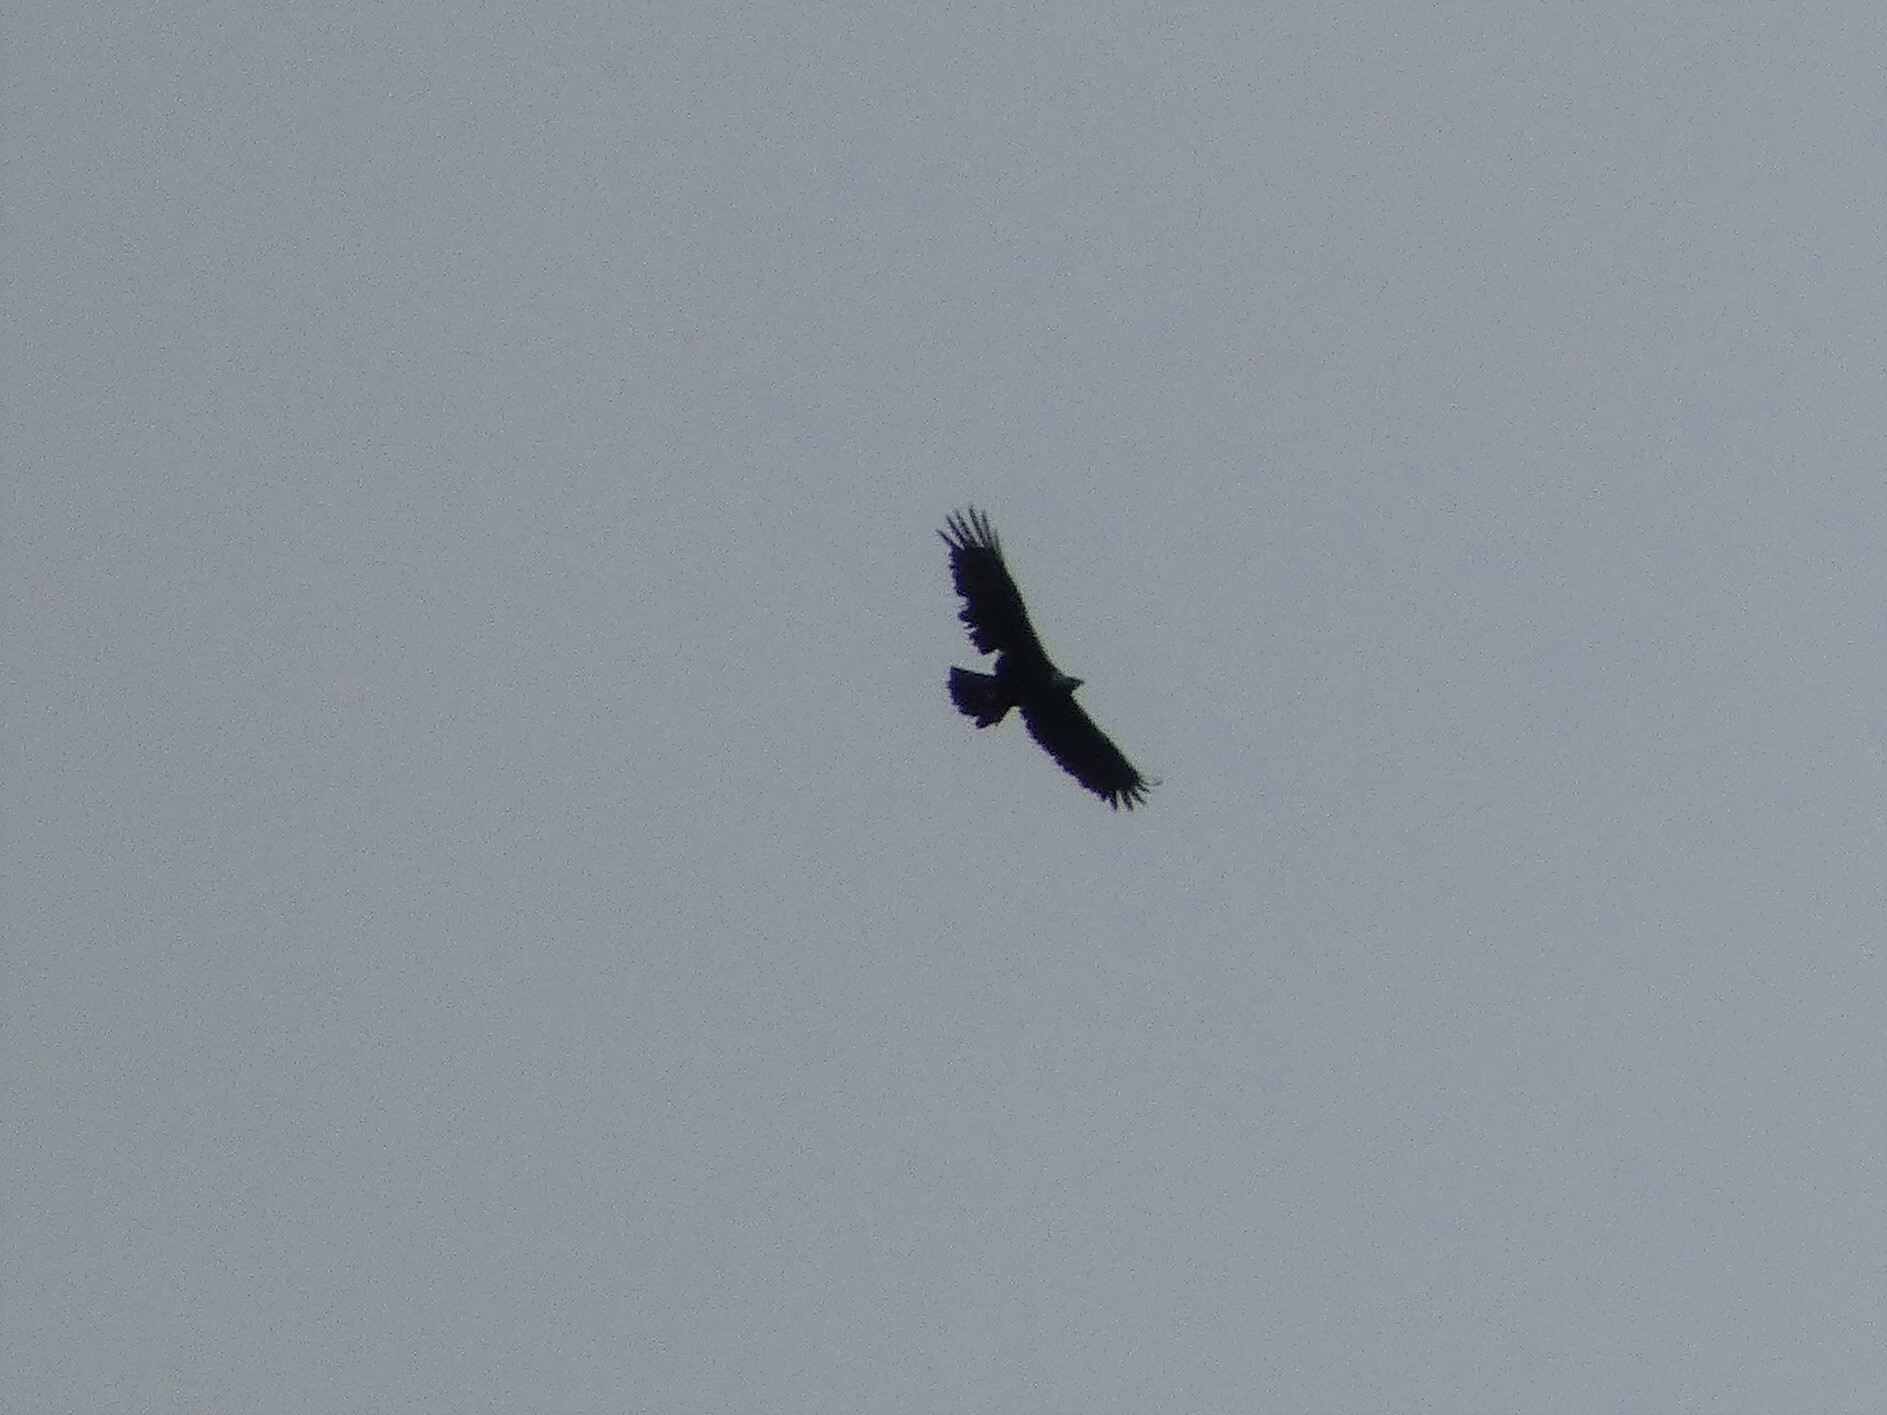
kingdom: Animalia
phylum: Chordata
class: Aves
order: Accipitriformes
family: Accipitridae
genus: Aquila
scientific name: Aquila chrysaetos
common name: Golden eagle
